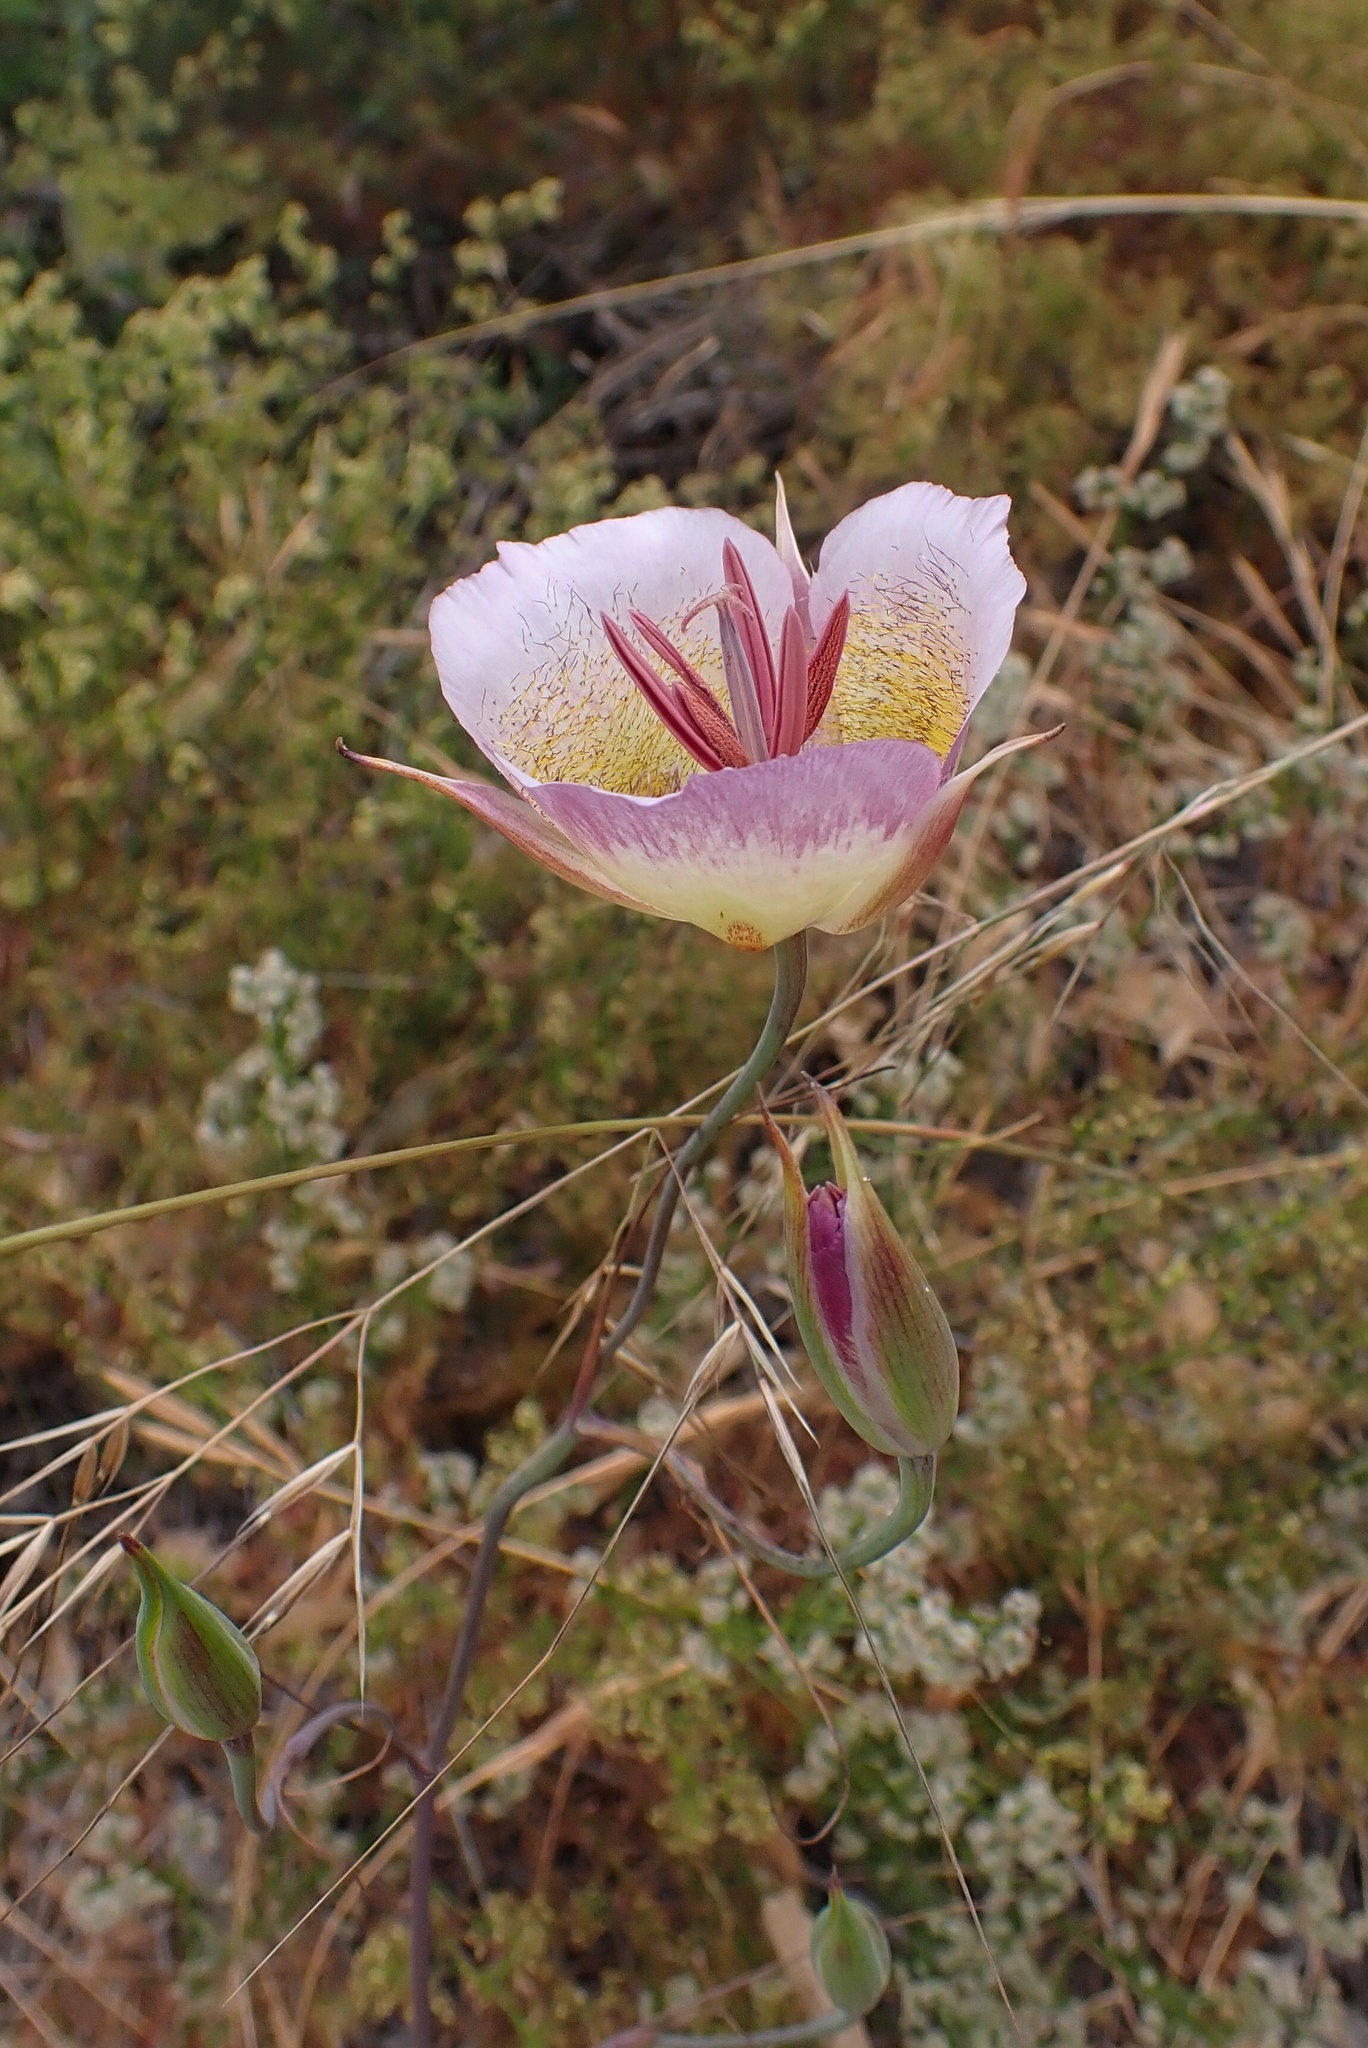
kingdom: Plantae
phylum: Tracheophyta
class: Liliopsida
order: Liliales
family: Liliaceae
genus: Calochortus
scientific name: Calochortus plummerae
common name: Plummer's mariposa-lily
